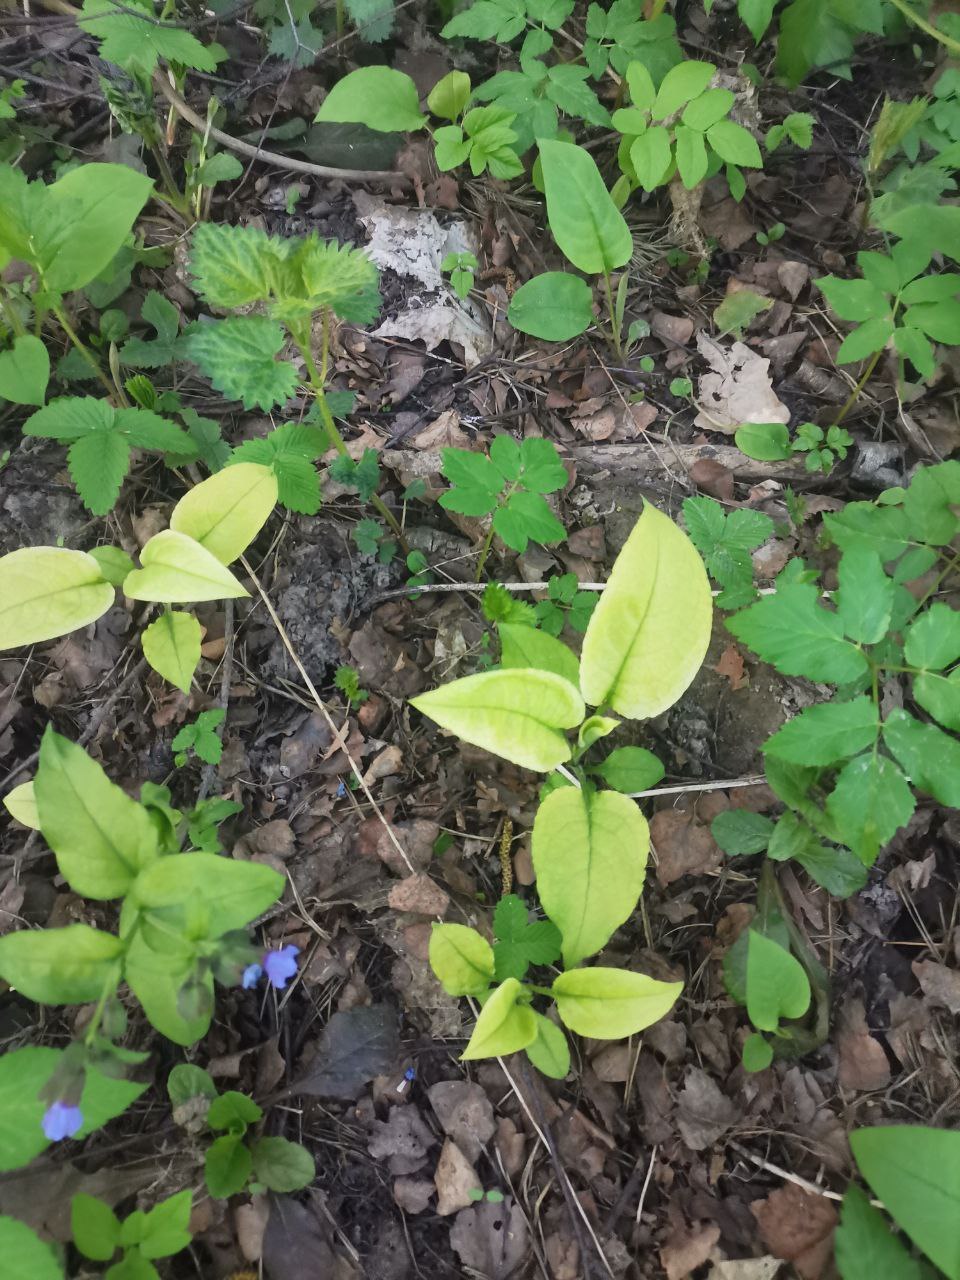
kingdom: Plantae
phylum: Tracheophyta
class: Magnoliopsida
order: Boraginales
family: Boraginaceae
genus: Pulmonaria
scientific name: Pulmonaria obscura
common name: Suffolk lungwort
